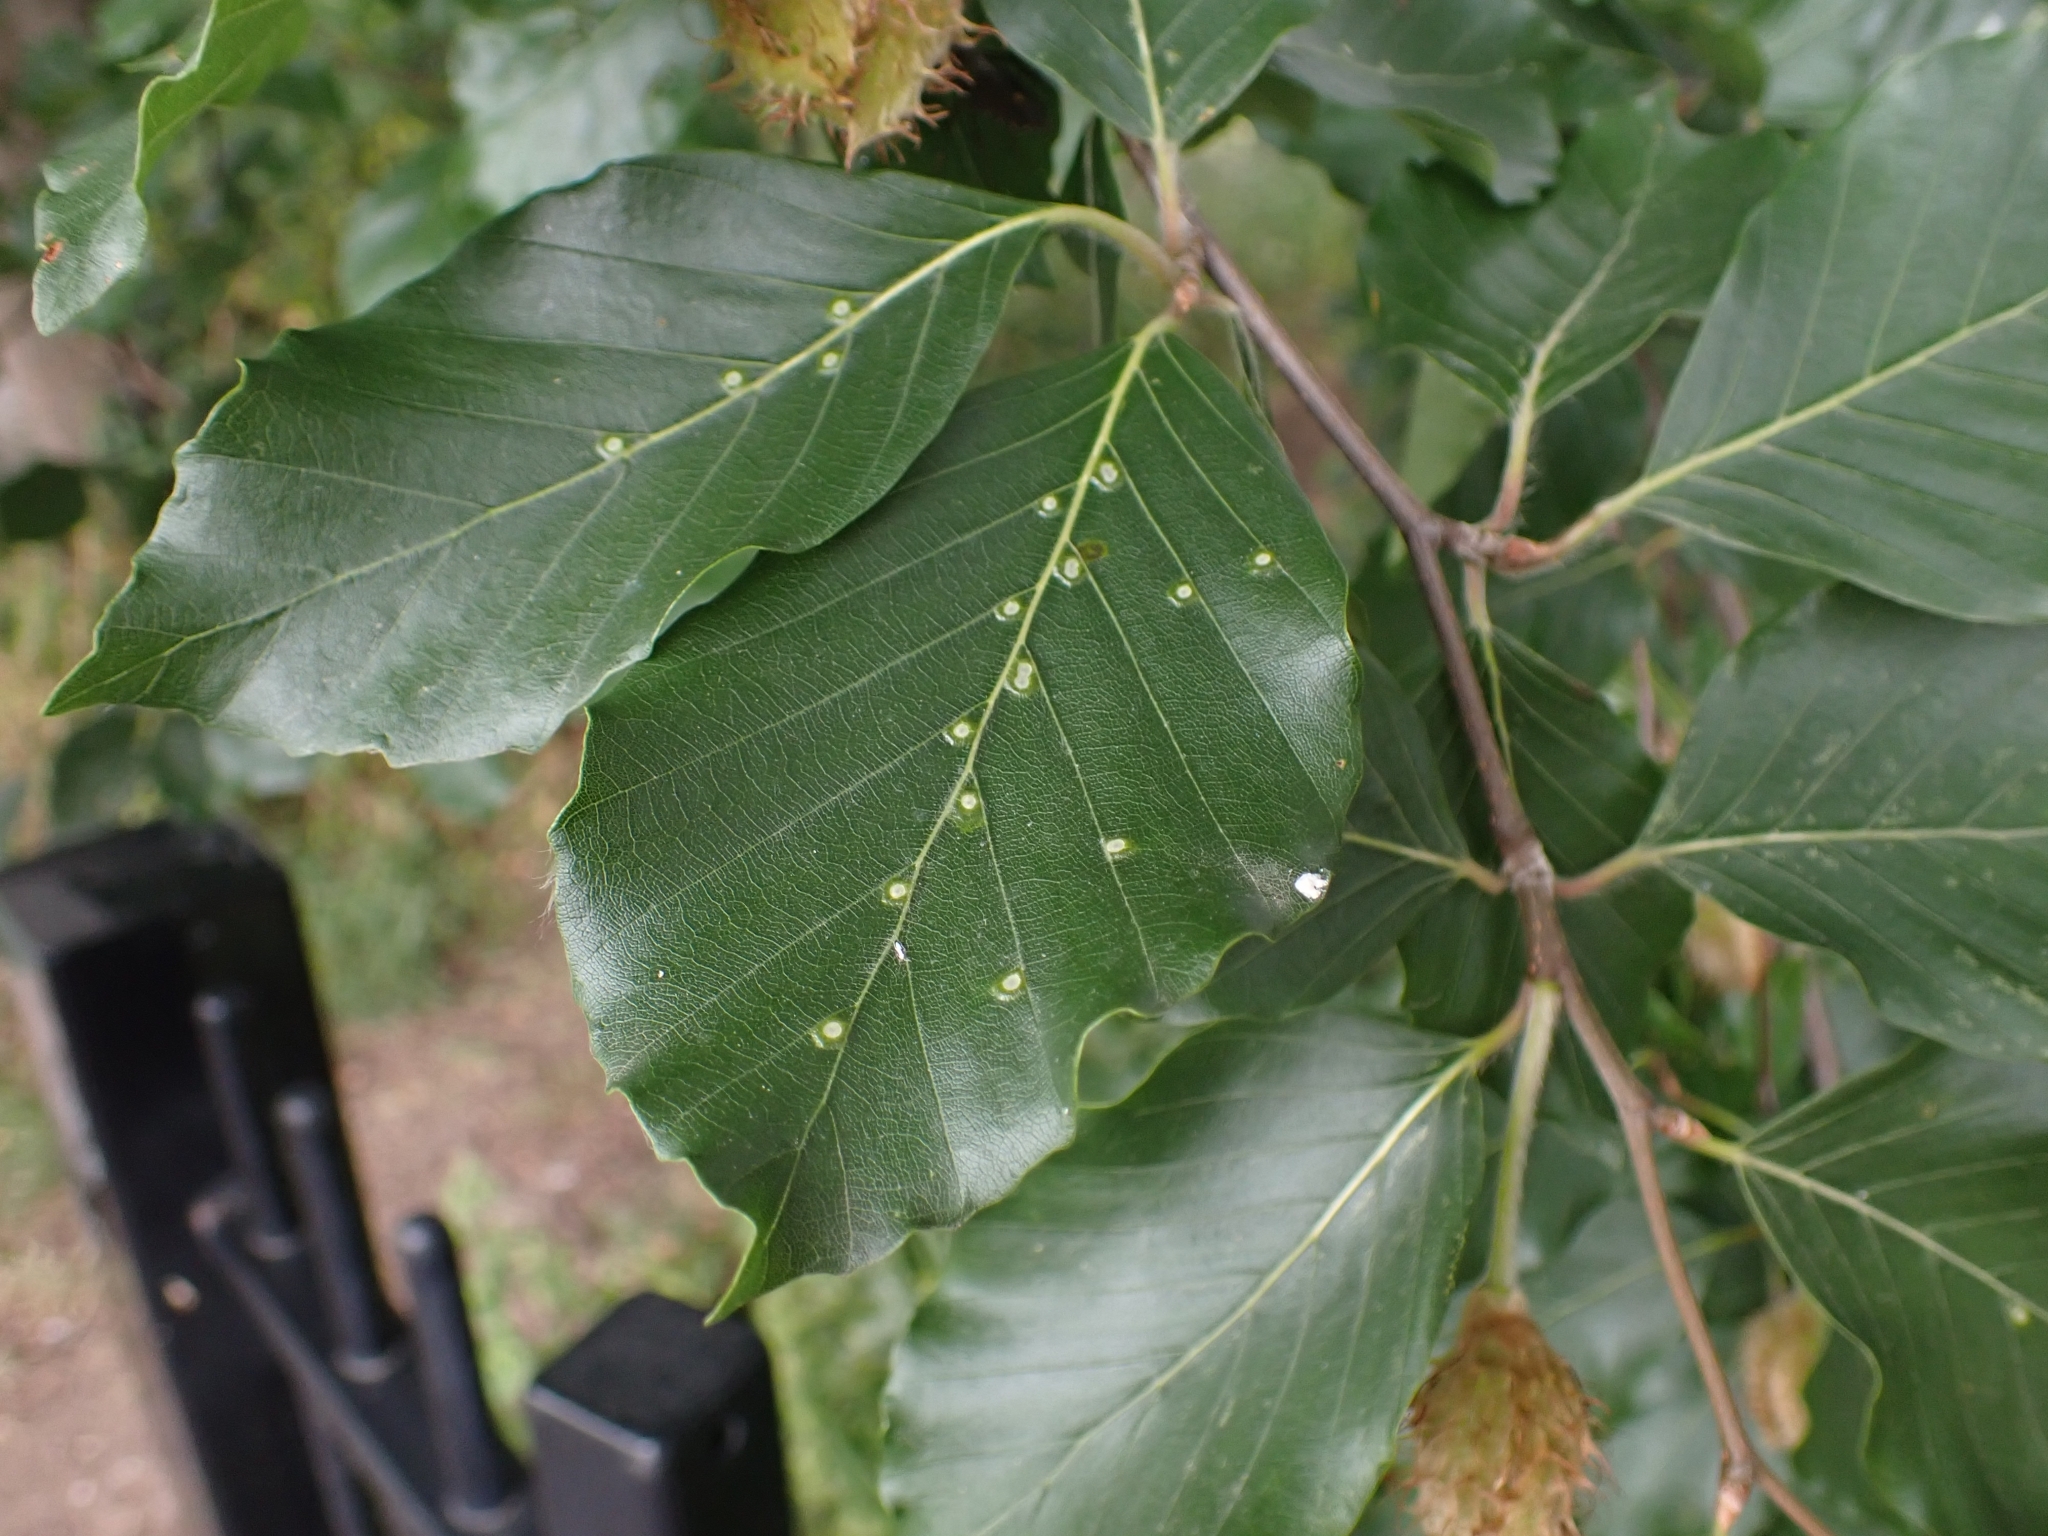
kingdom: Animalia
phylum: Arthropoda
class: Insecta
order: Diptera
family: Cecidomyiidae
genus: Hartigiola
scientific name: Hartigiola annulipes
